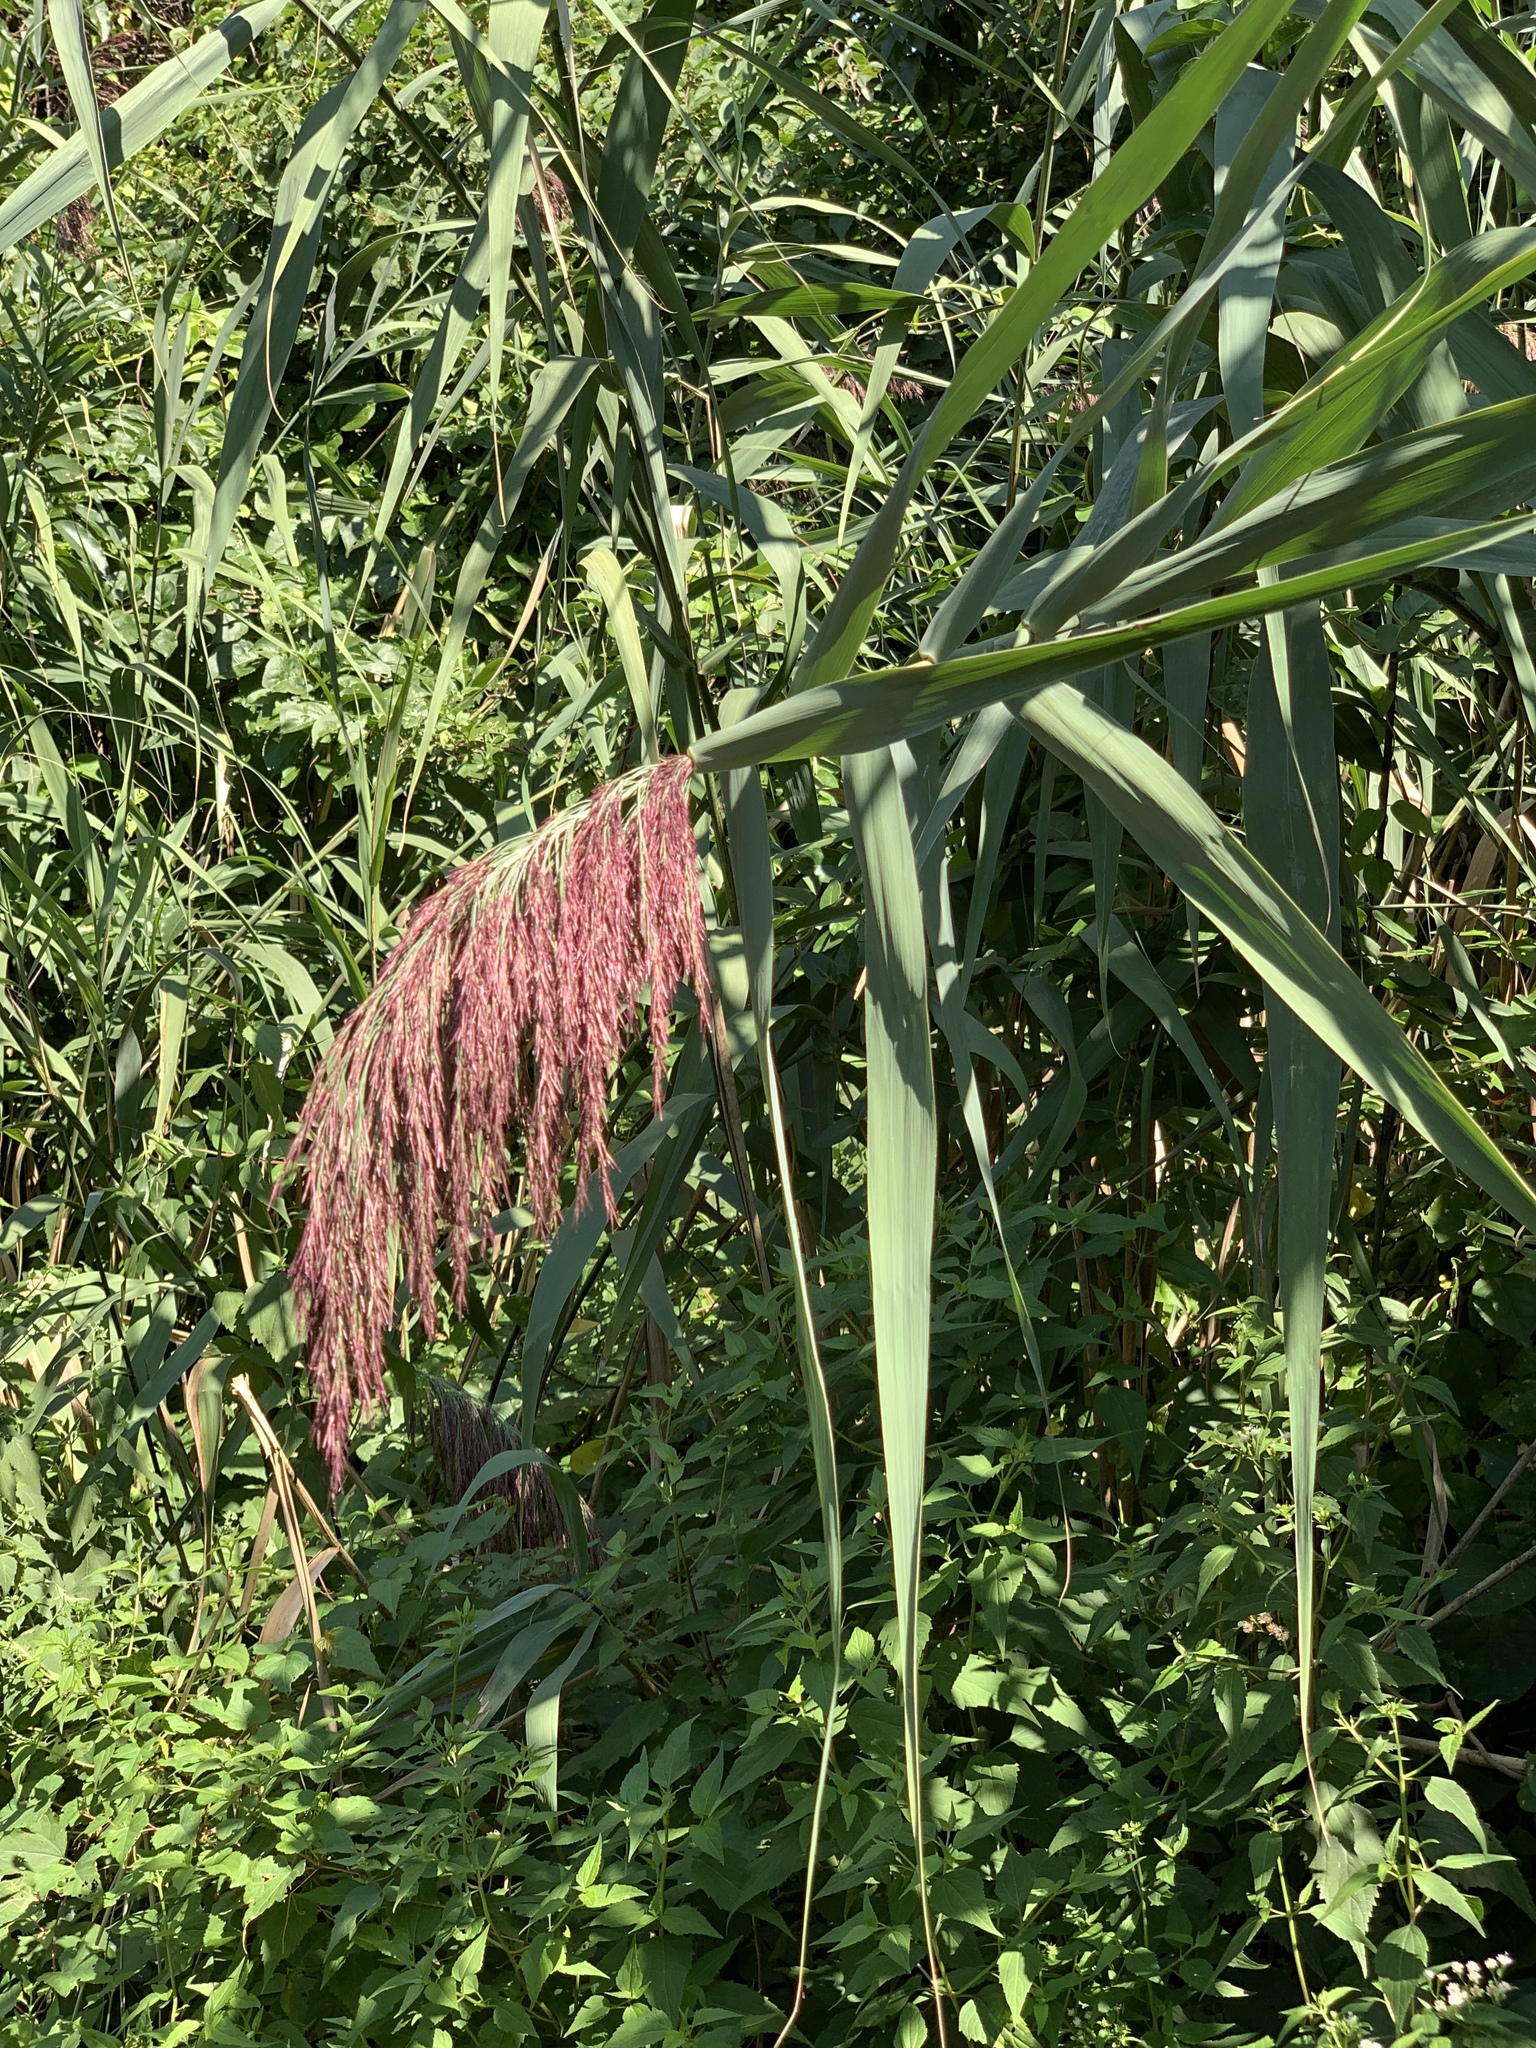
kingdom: Plantae
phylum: Tracheophyta
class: Liliopsida
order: Poales
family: Poaceae
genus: Phragmites
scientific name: Phragmites australis
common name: Common reed
